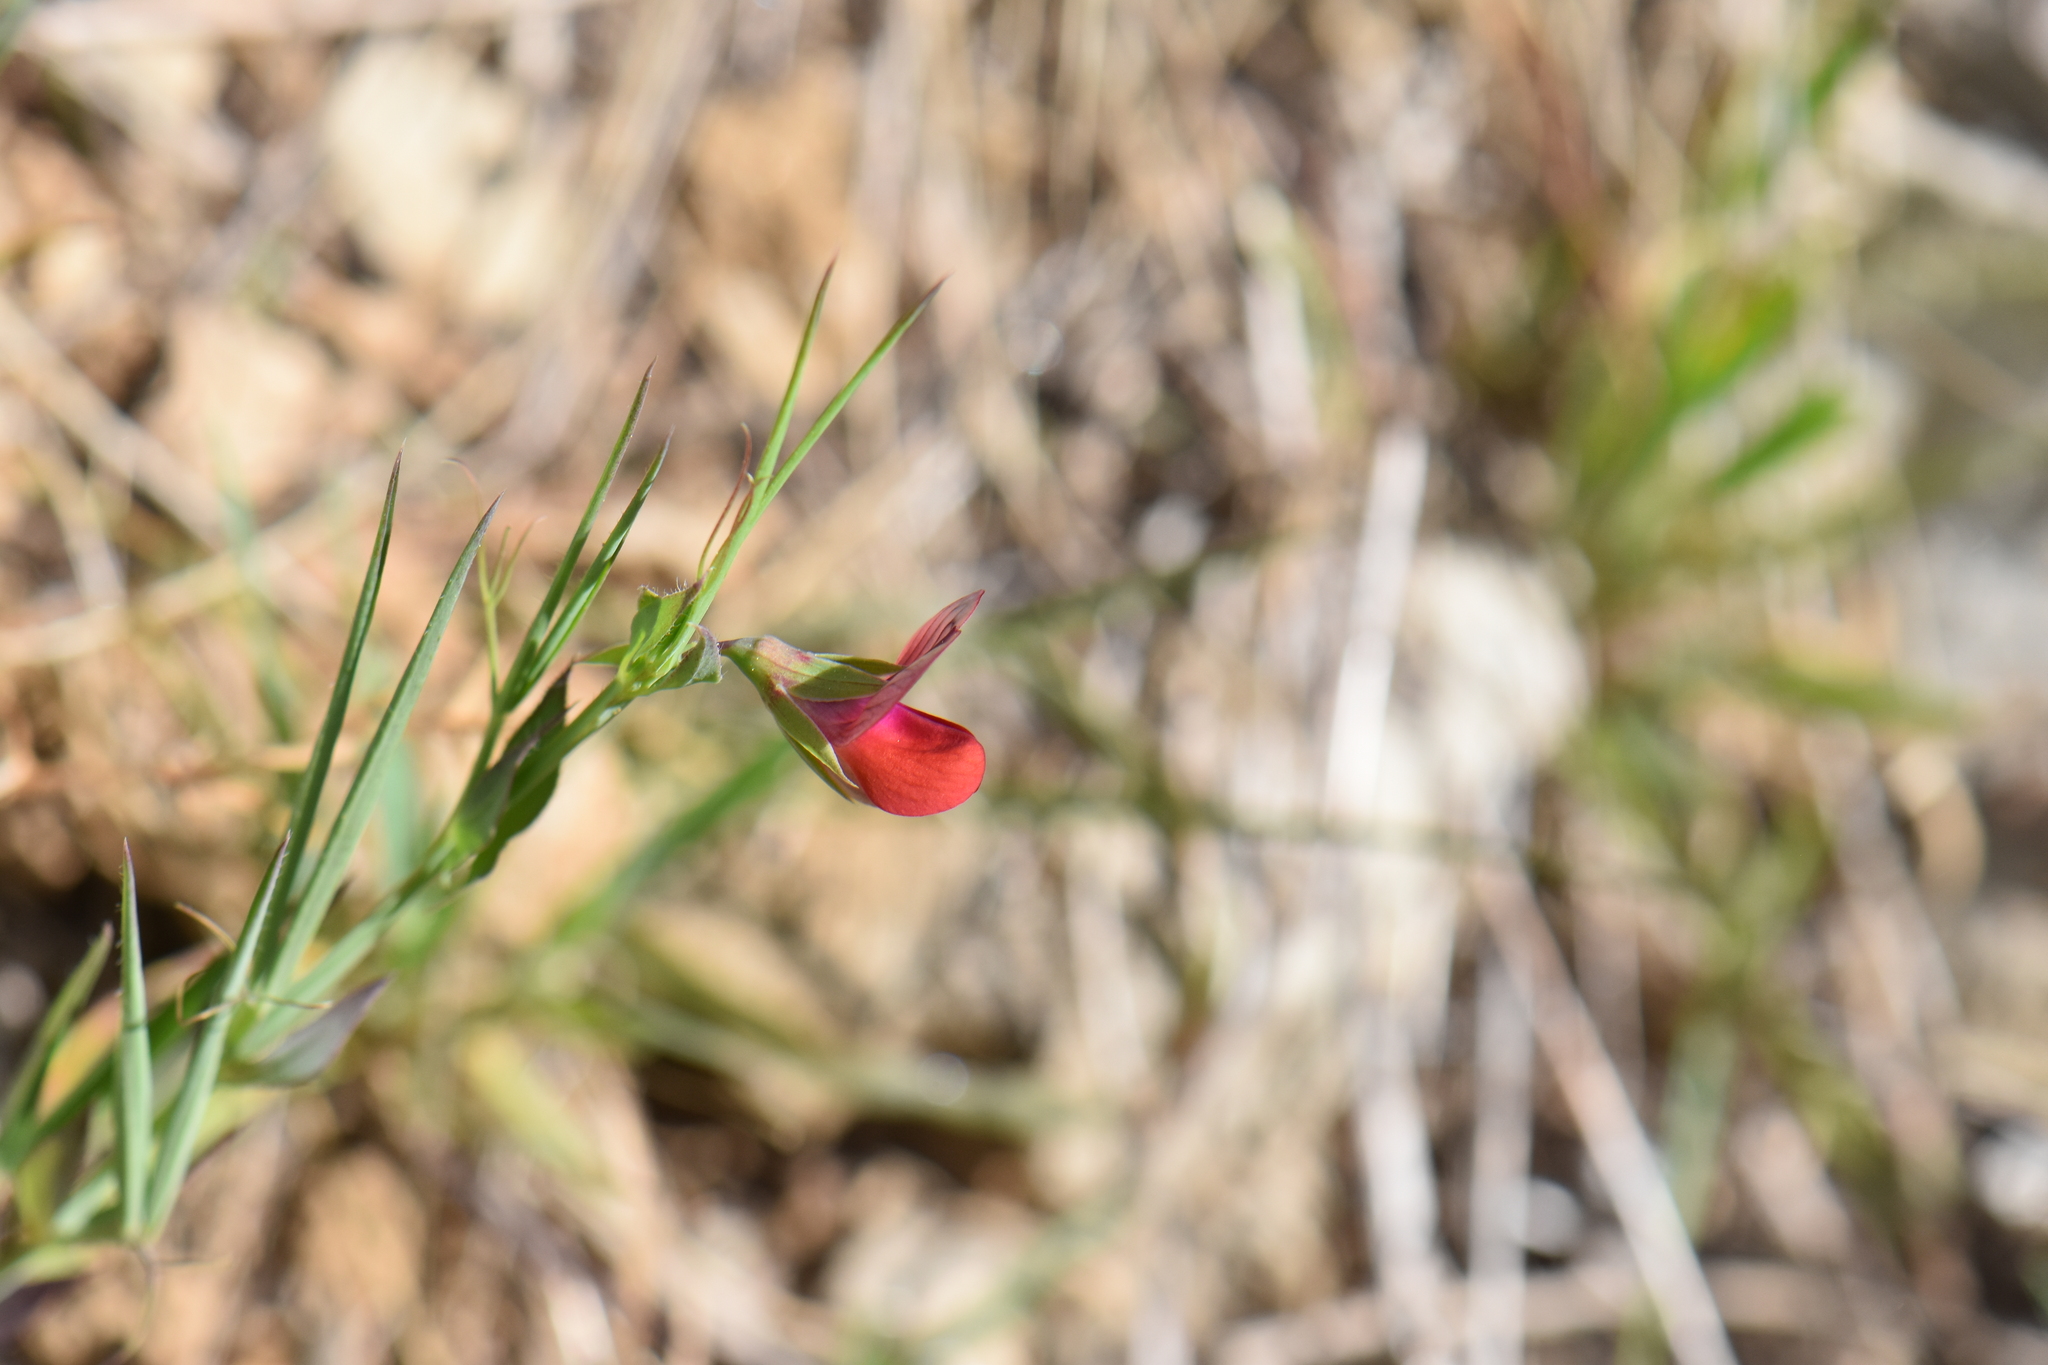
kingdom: Plantae
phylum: Tracheophyta
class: Magnoliopsida
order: Fabales
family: Fabaceae
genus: Lathyrus
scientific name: Lathyrus cicera
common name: Red vetchling
